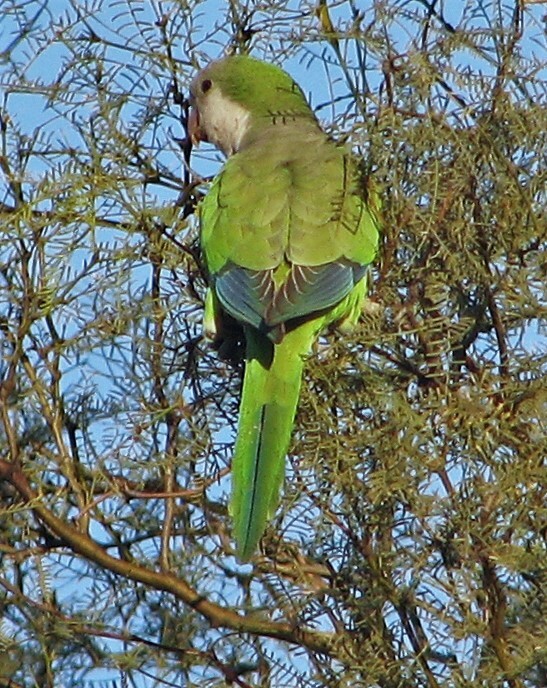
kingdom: Animalia
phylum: Chordata
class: Aves
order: Psittaciformes
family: Psittacidae
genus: Myiopsitta
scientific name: Myiopsitta monachus
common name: Monk parakeet
